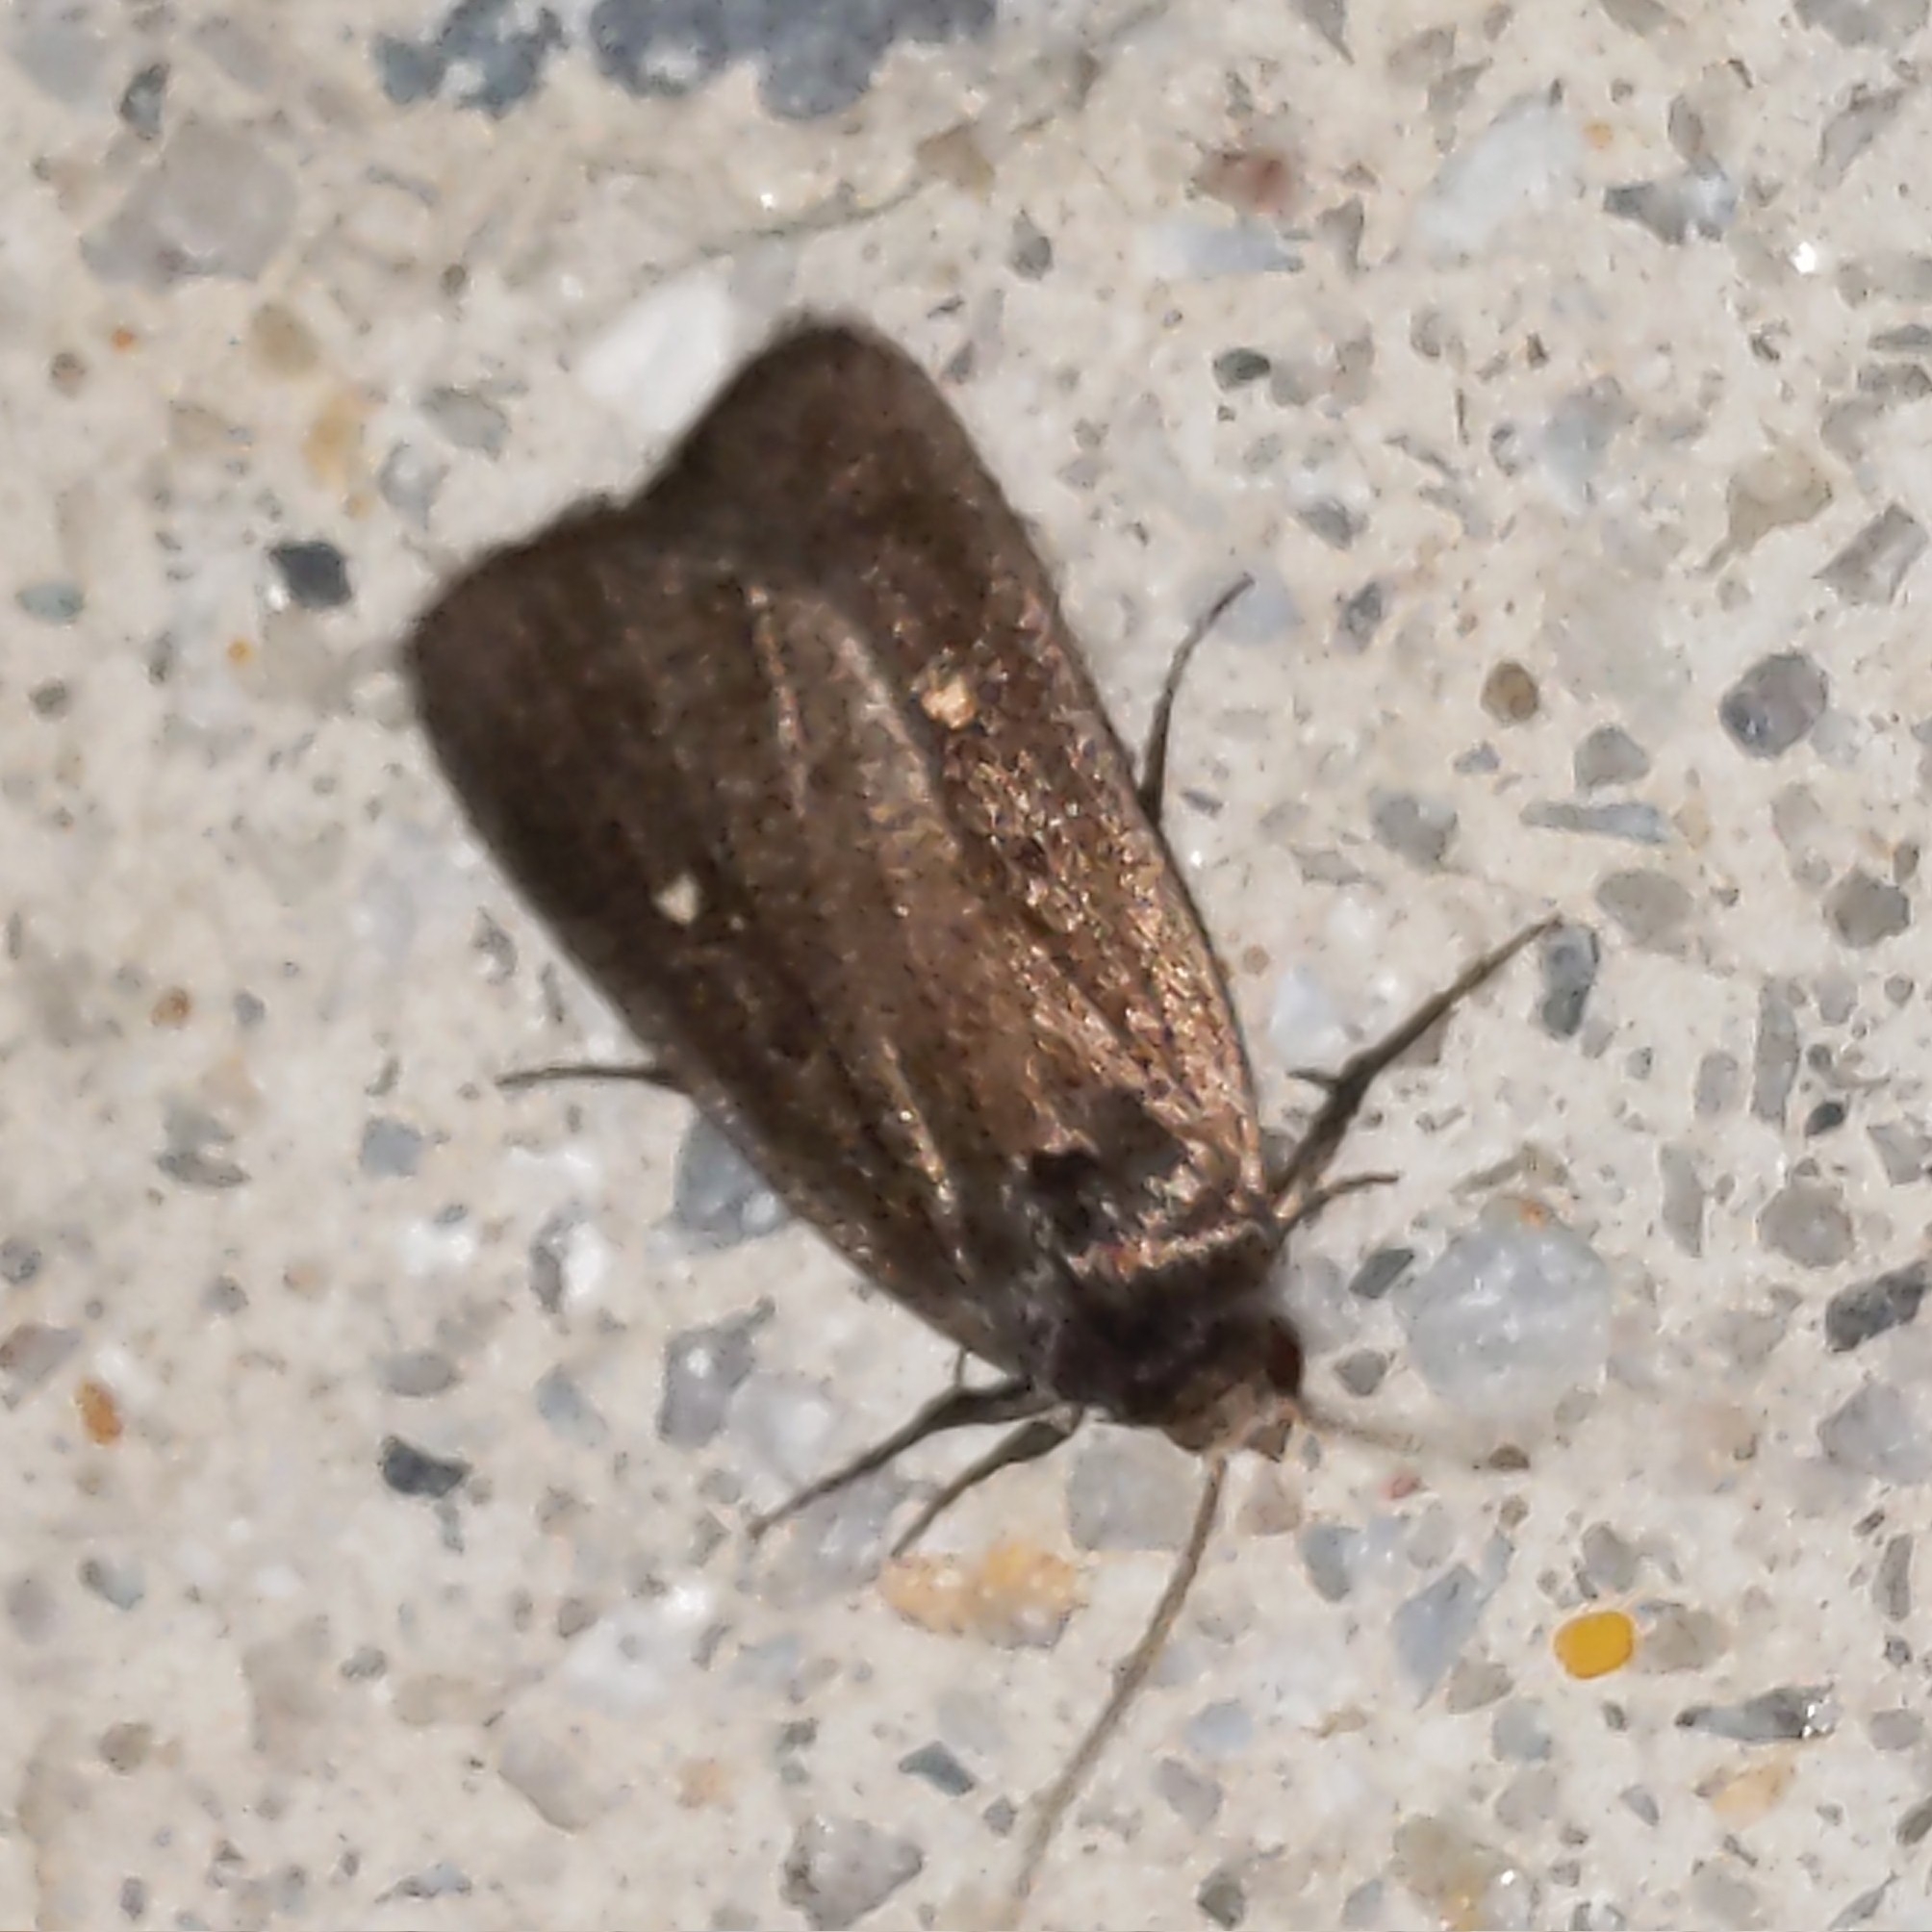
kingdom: Animalia
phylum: Arthropoda
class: Insecta
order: Lepidoptera
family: Noctuidae
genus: Proxenus
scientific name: Proxenus miranda
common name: Miranda moth
